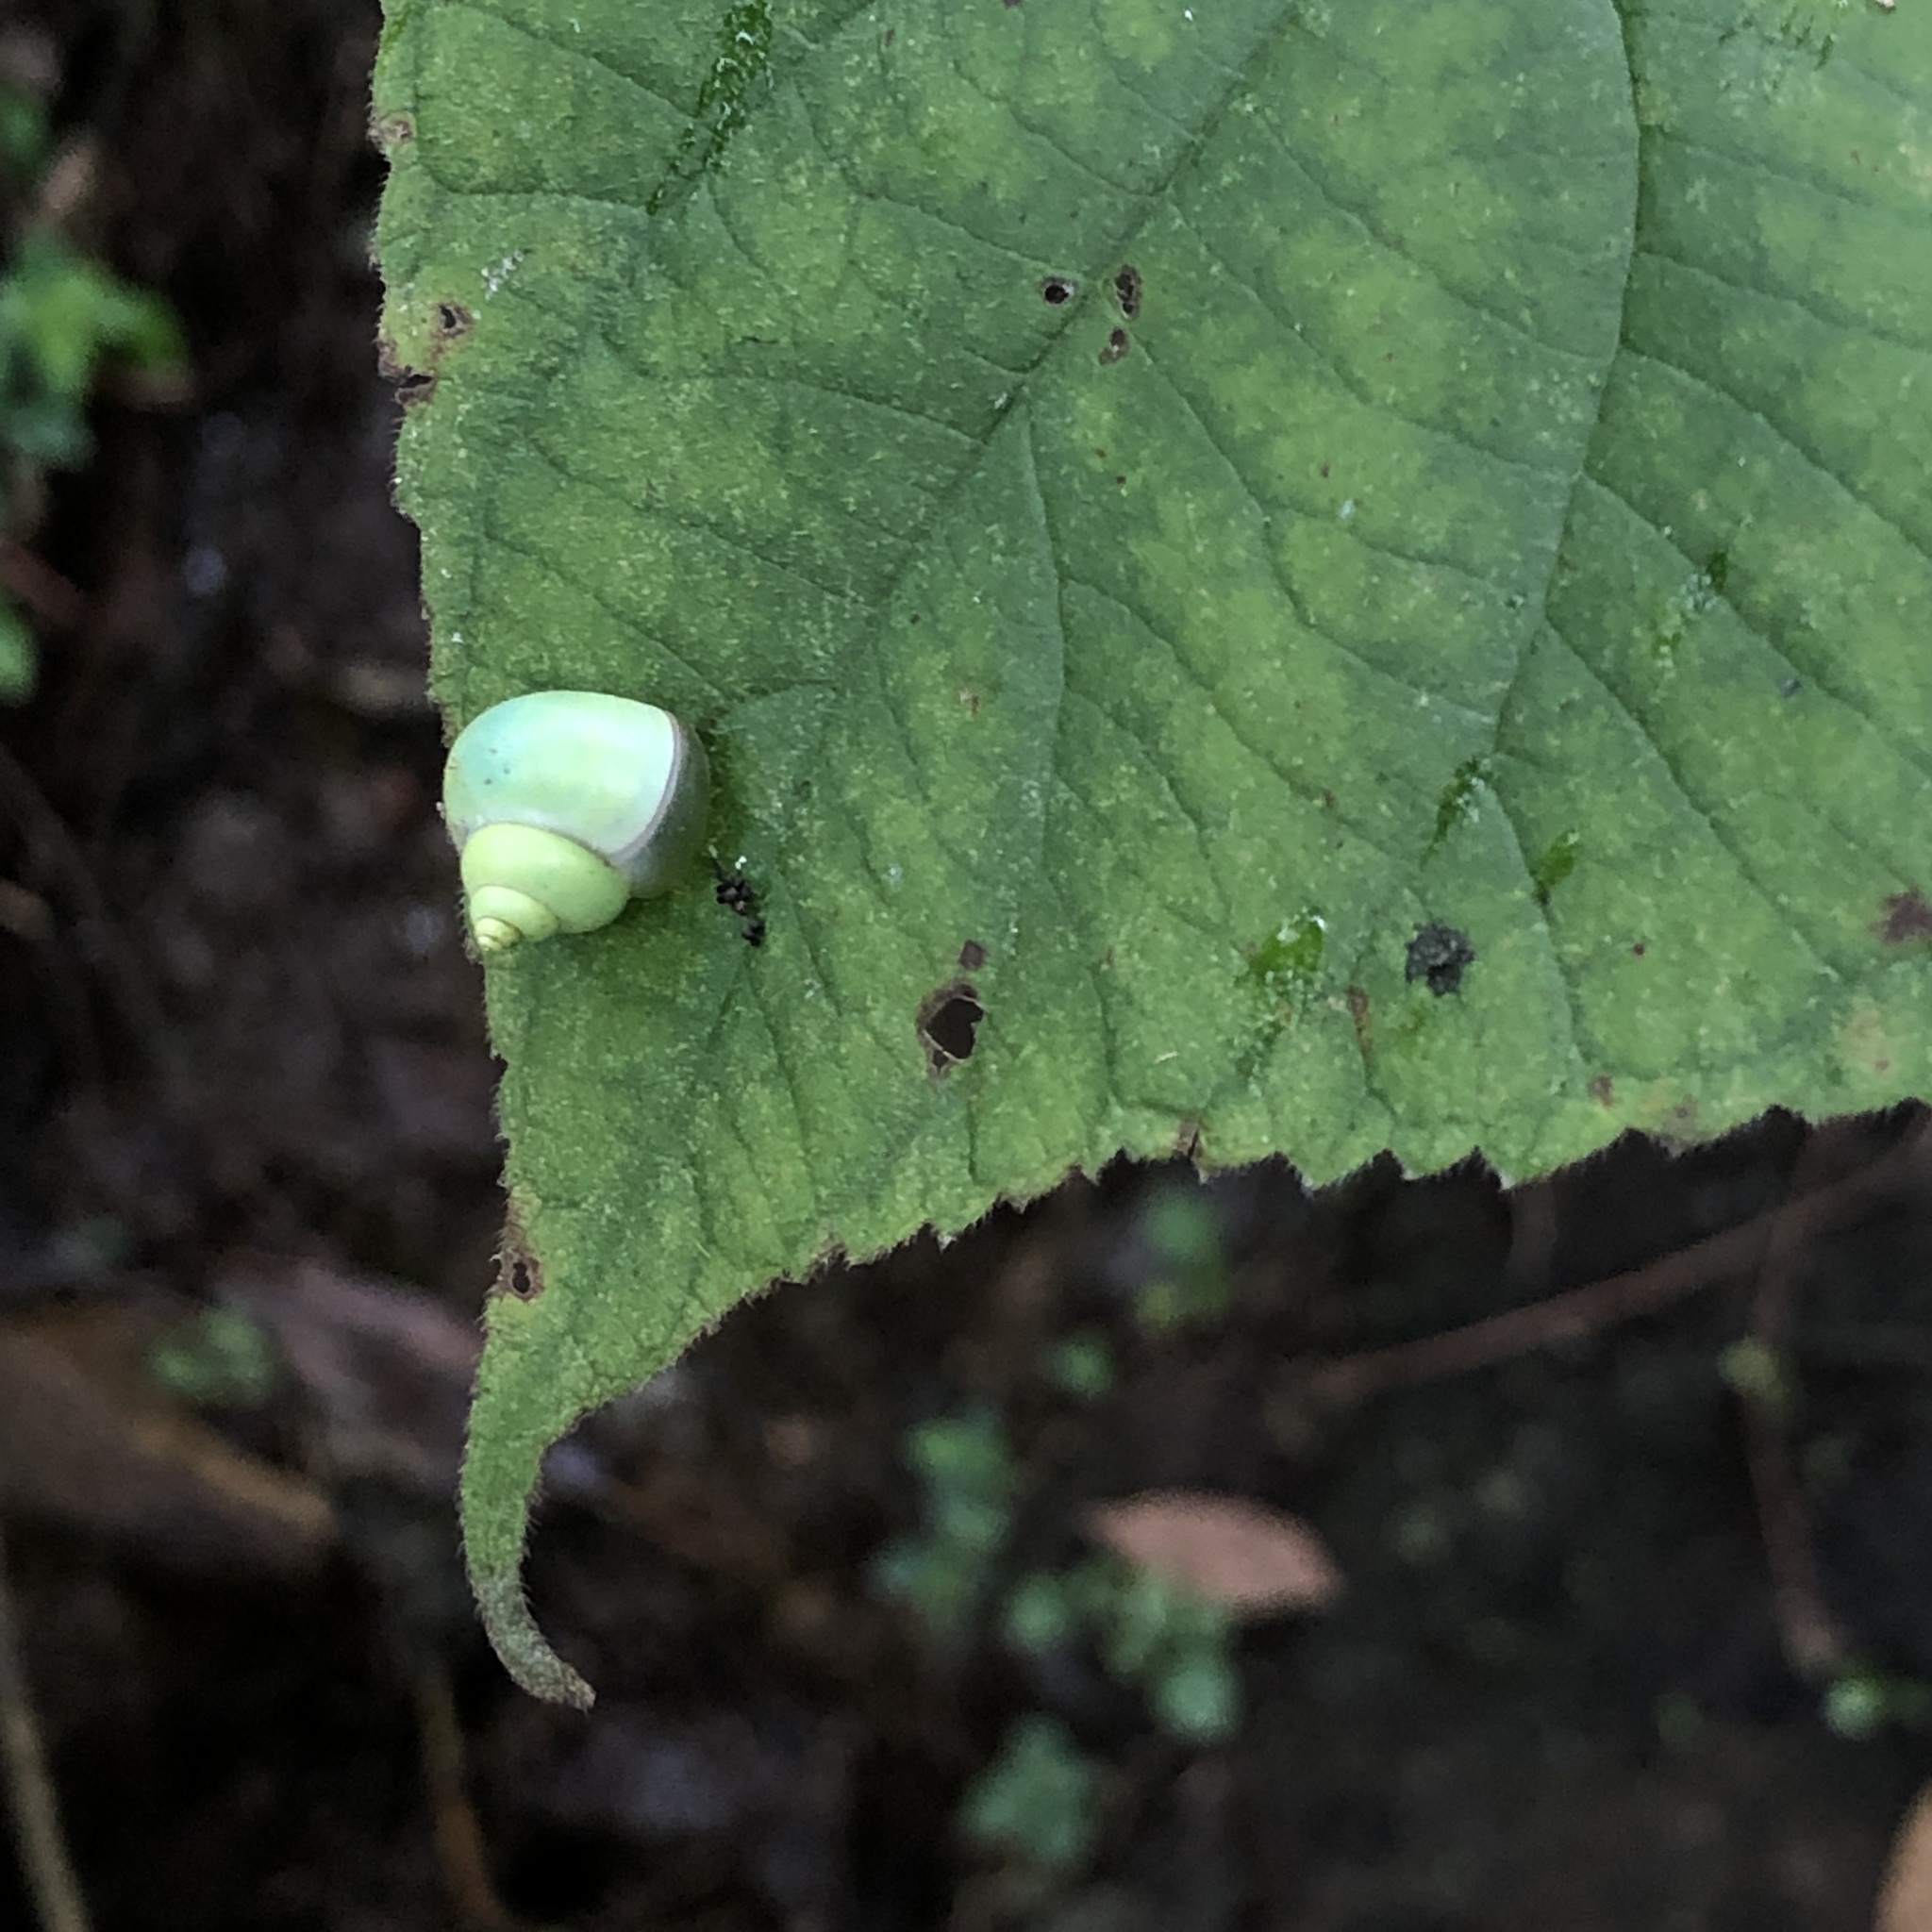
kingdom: Animalia
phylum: Mollusca
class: Gastropoda
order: Architaenioglossa
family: Cyclophoridae
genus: Leptopoma
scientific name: Leptopoma nitidum
